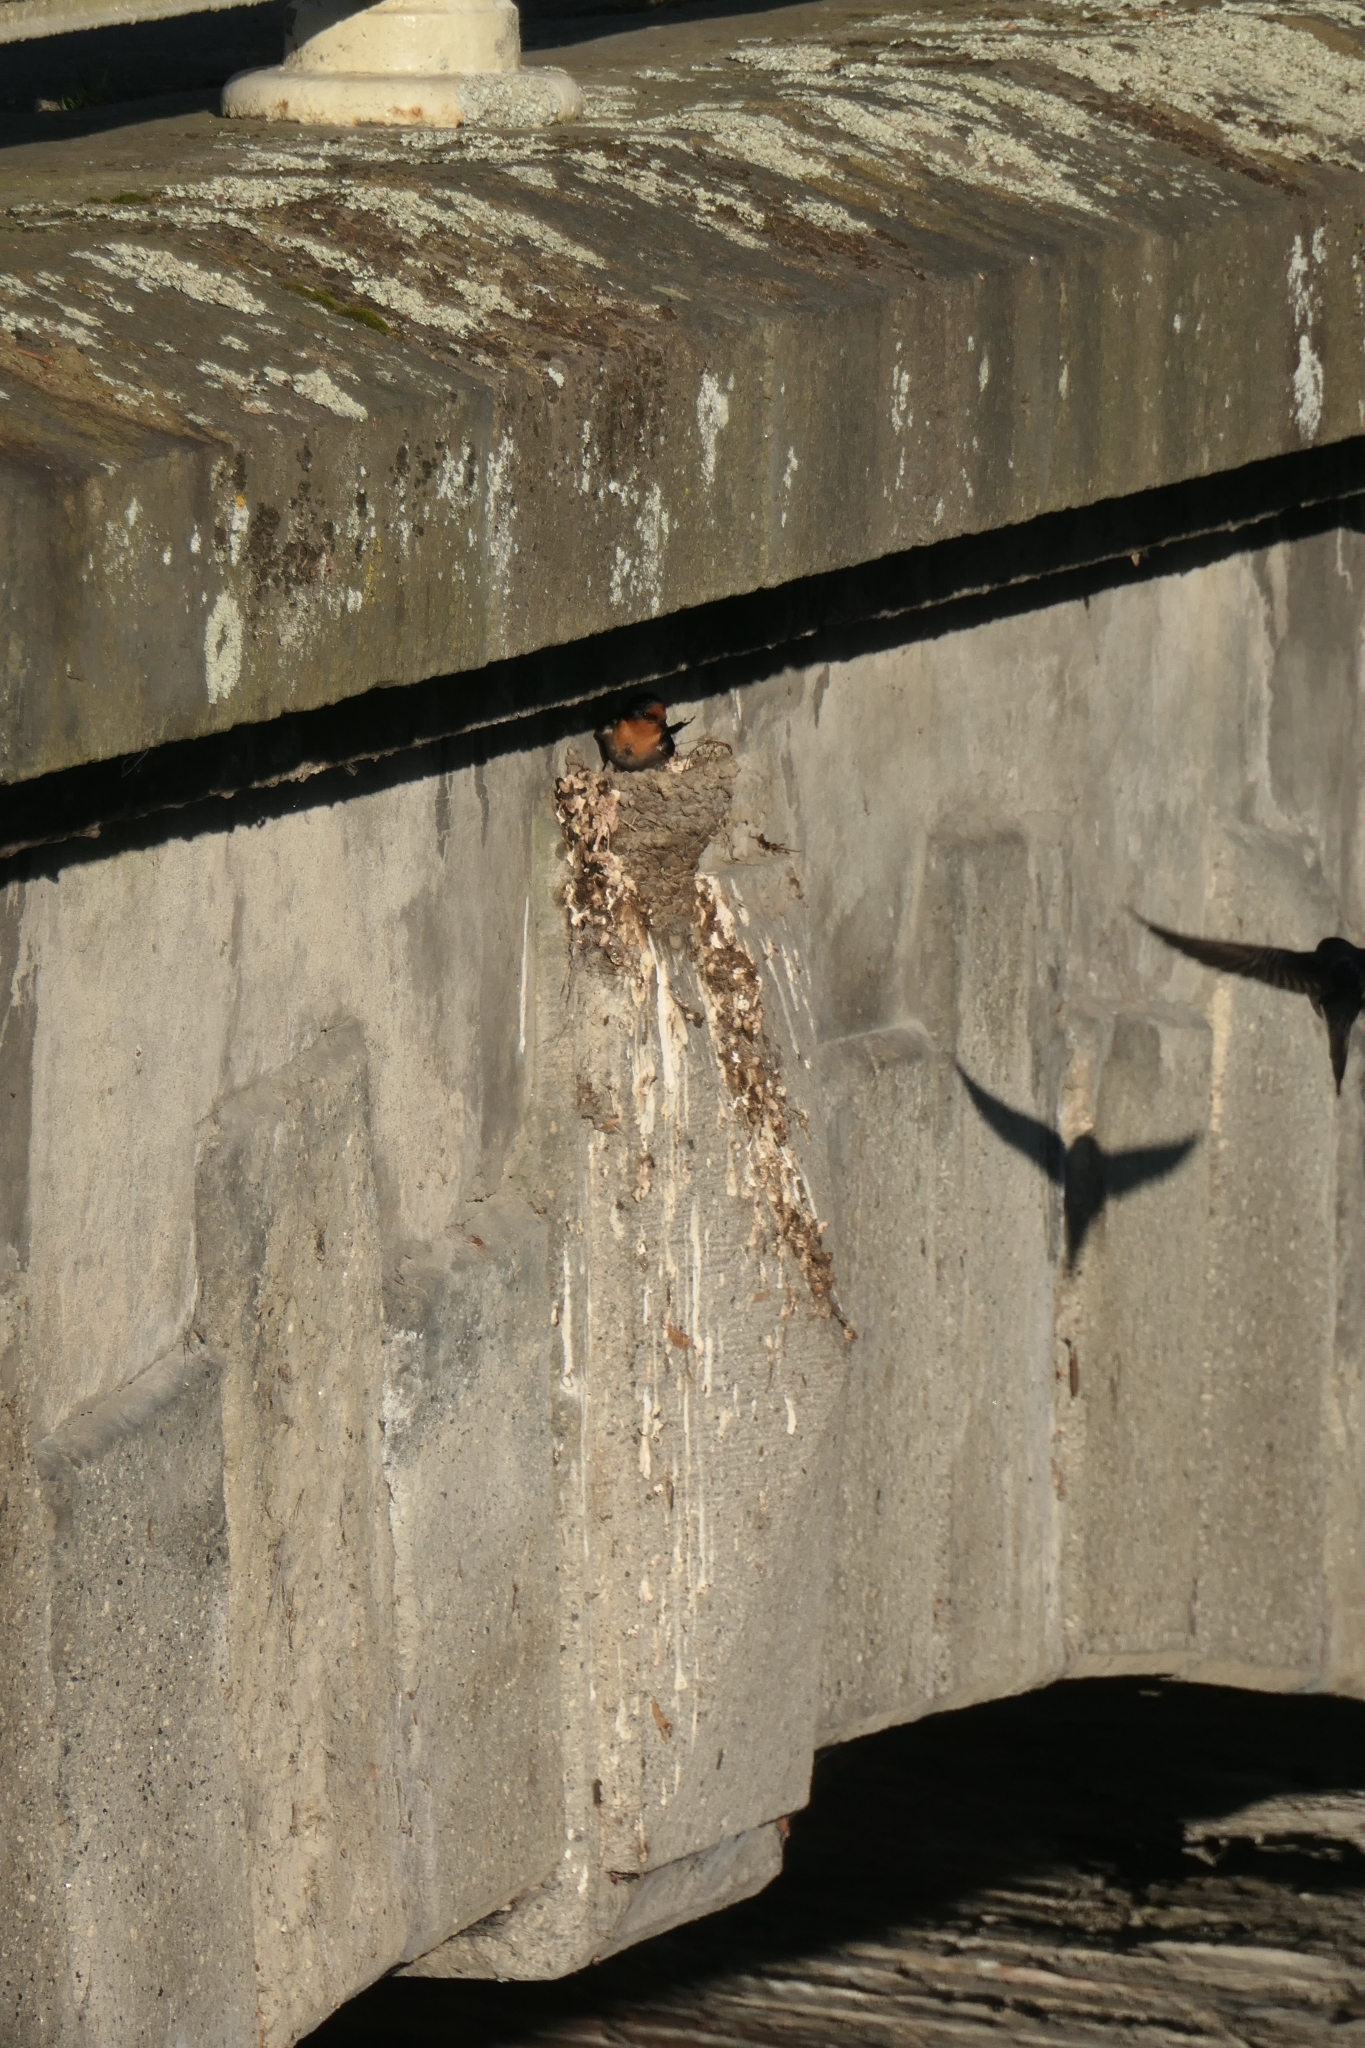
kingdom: Animalia
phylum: Chordata
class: Aves
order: Passeriformes
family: Hirundinidae
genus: Hirundo
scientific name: Hirundo neoxena
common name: Welcome swallow
